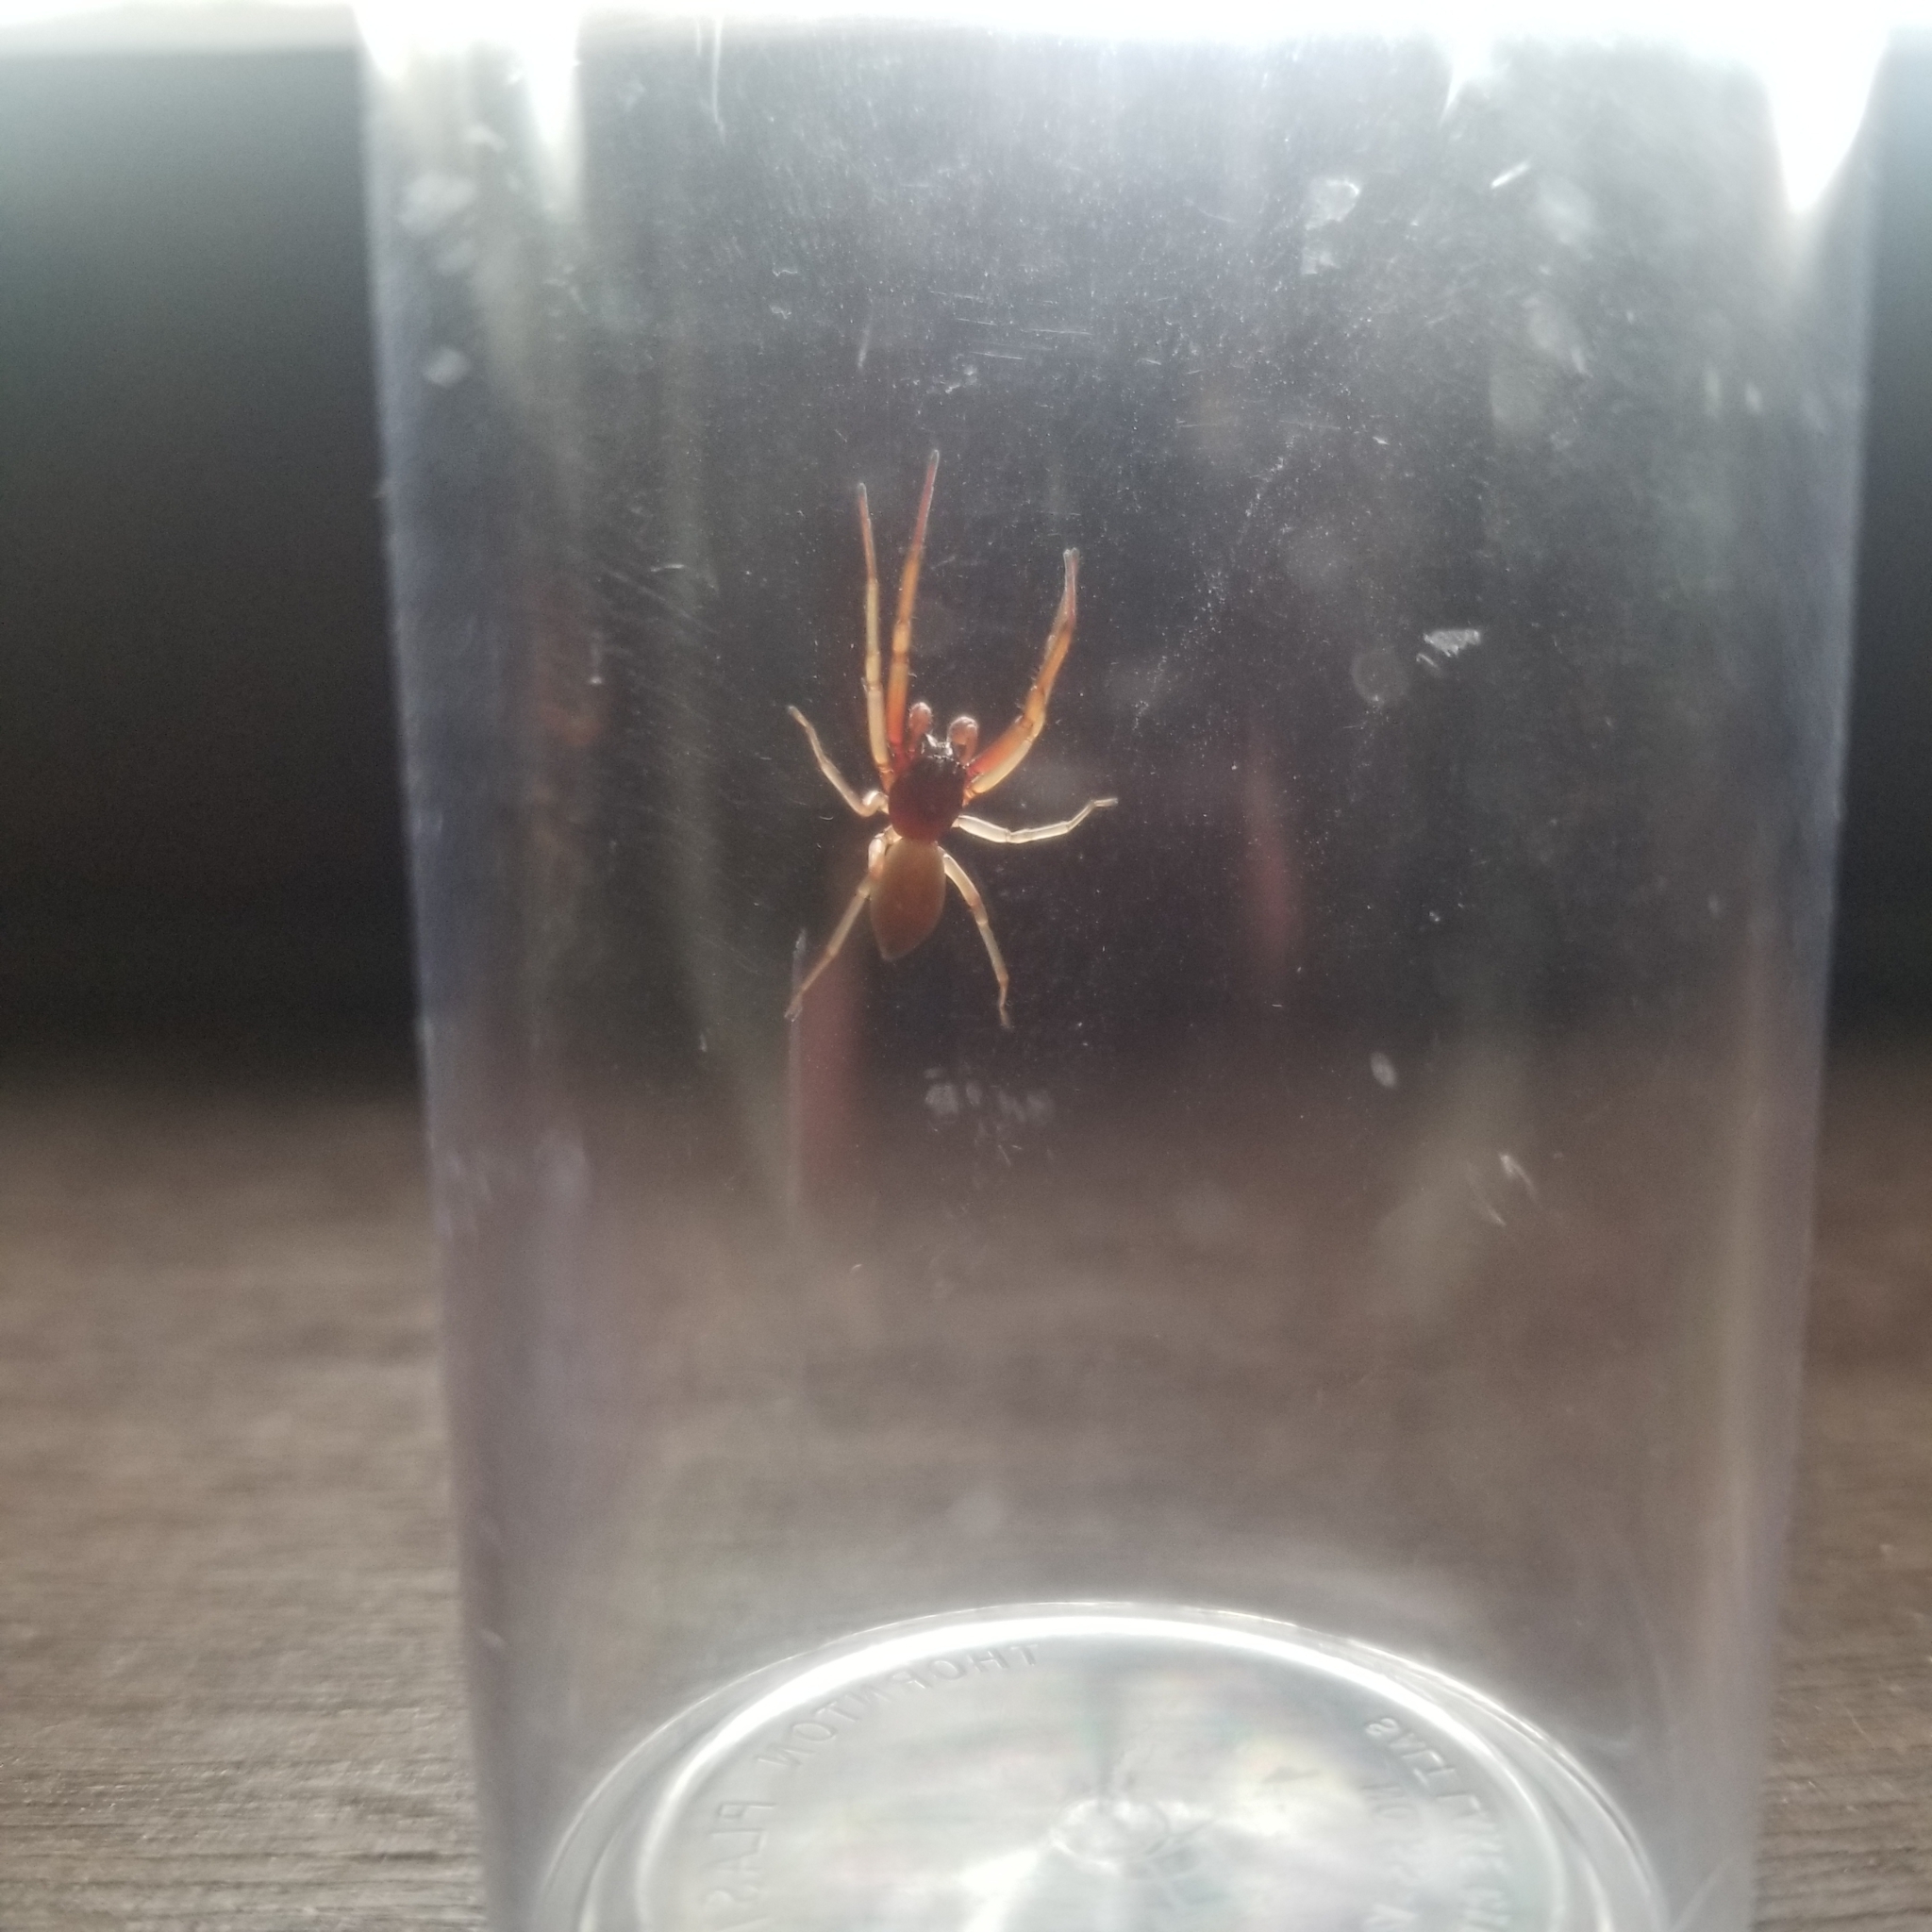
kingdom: Animalia
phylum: Arthropoda
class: Arachnida
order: Araneae
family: Trachelidae
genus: Trachelas
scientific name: Trachelas tranquillus
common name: Broad-faced sac spider
